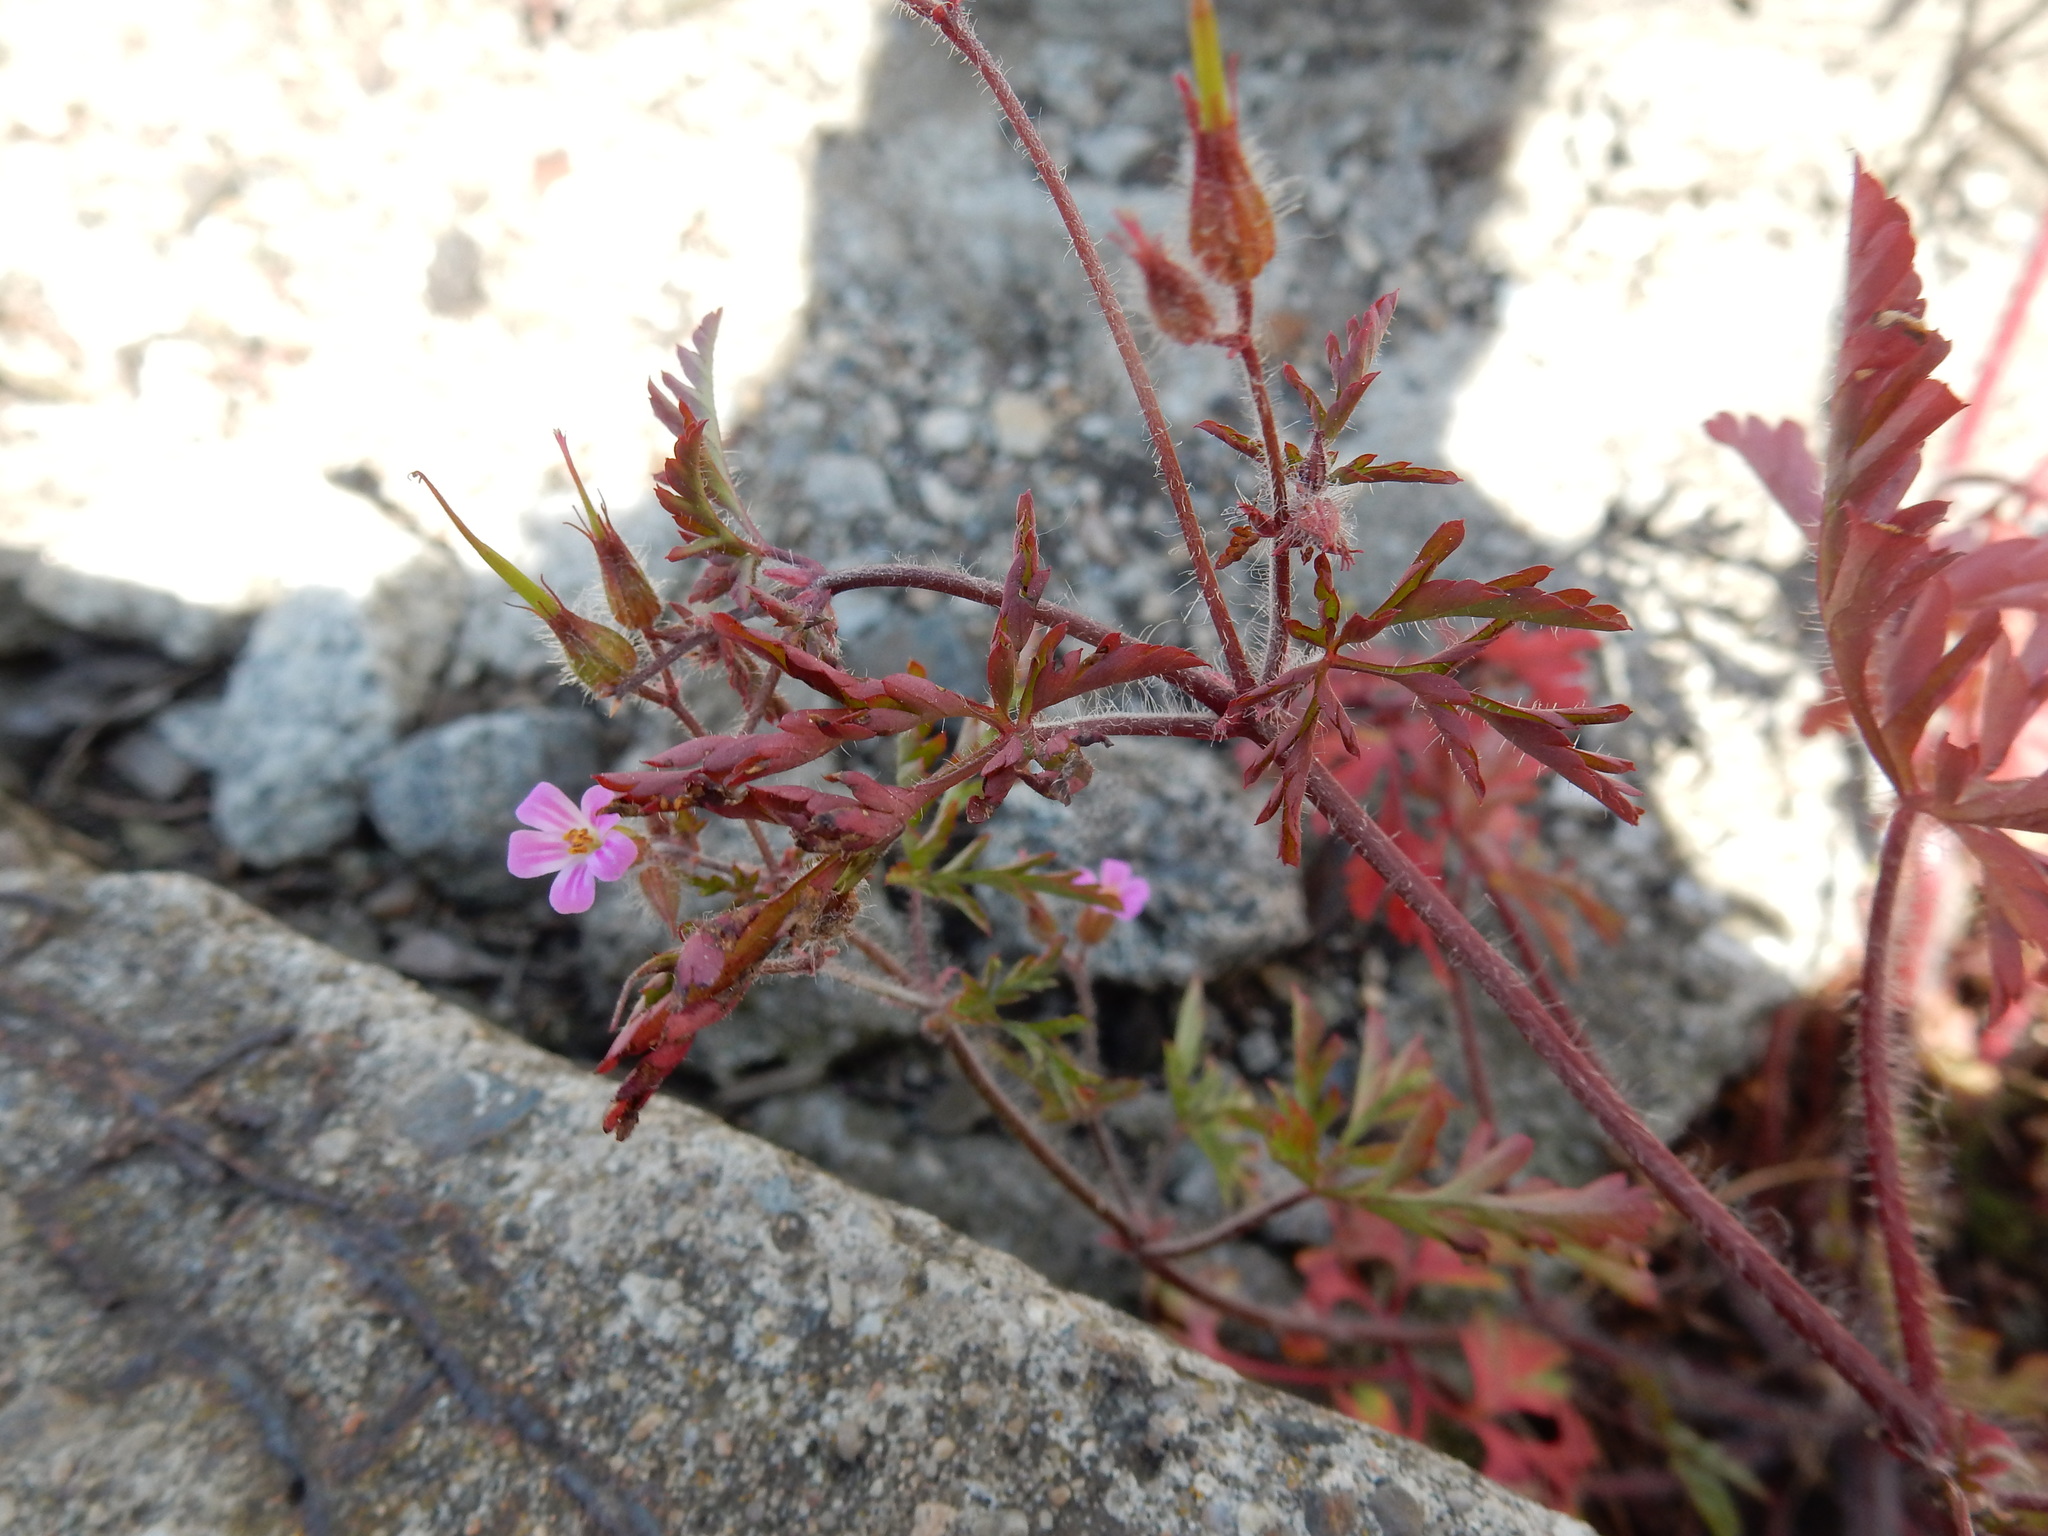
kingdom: Plantae
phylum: Tracheophyta
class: Magnoliopsida
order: Geraniales
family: Geraniaceae
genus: Geranium
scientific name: Geranium robertianum
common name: Herb-robert
